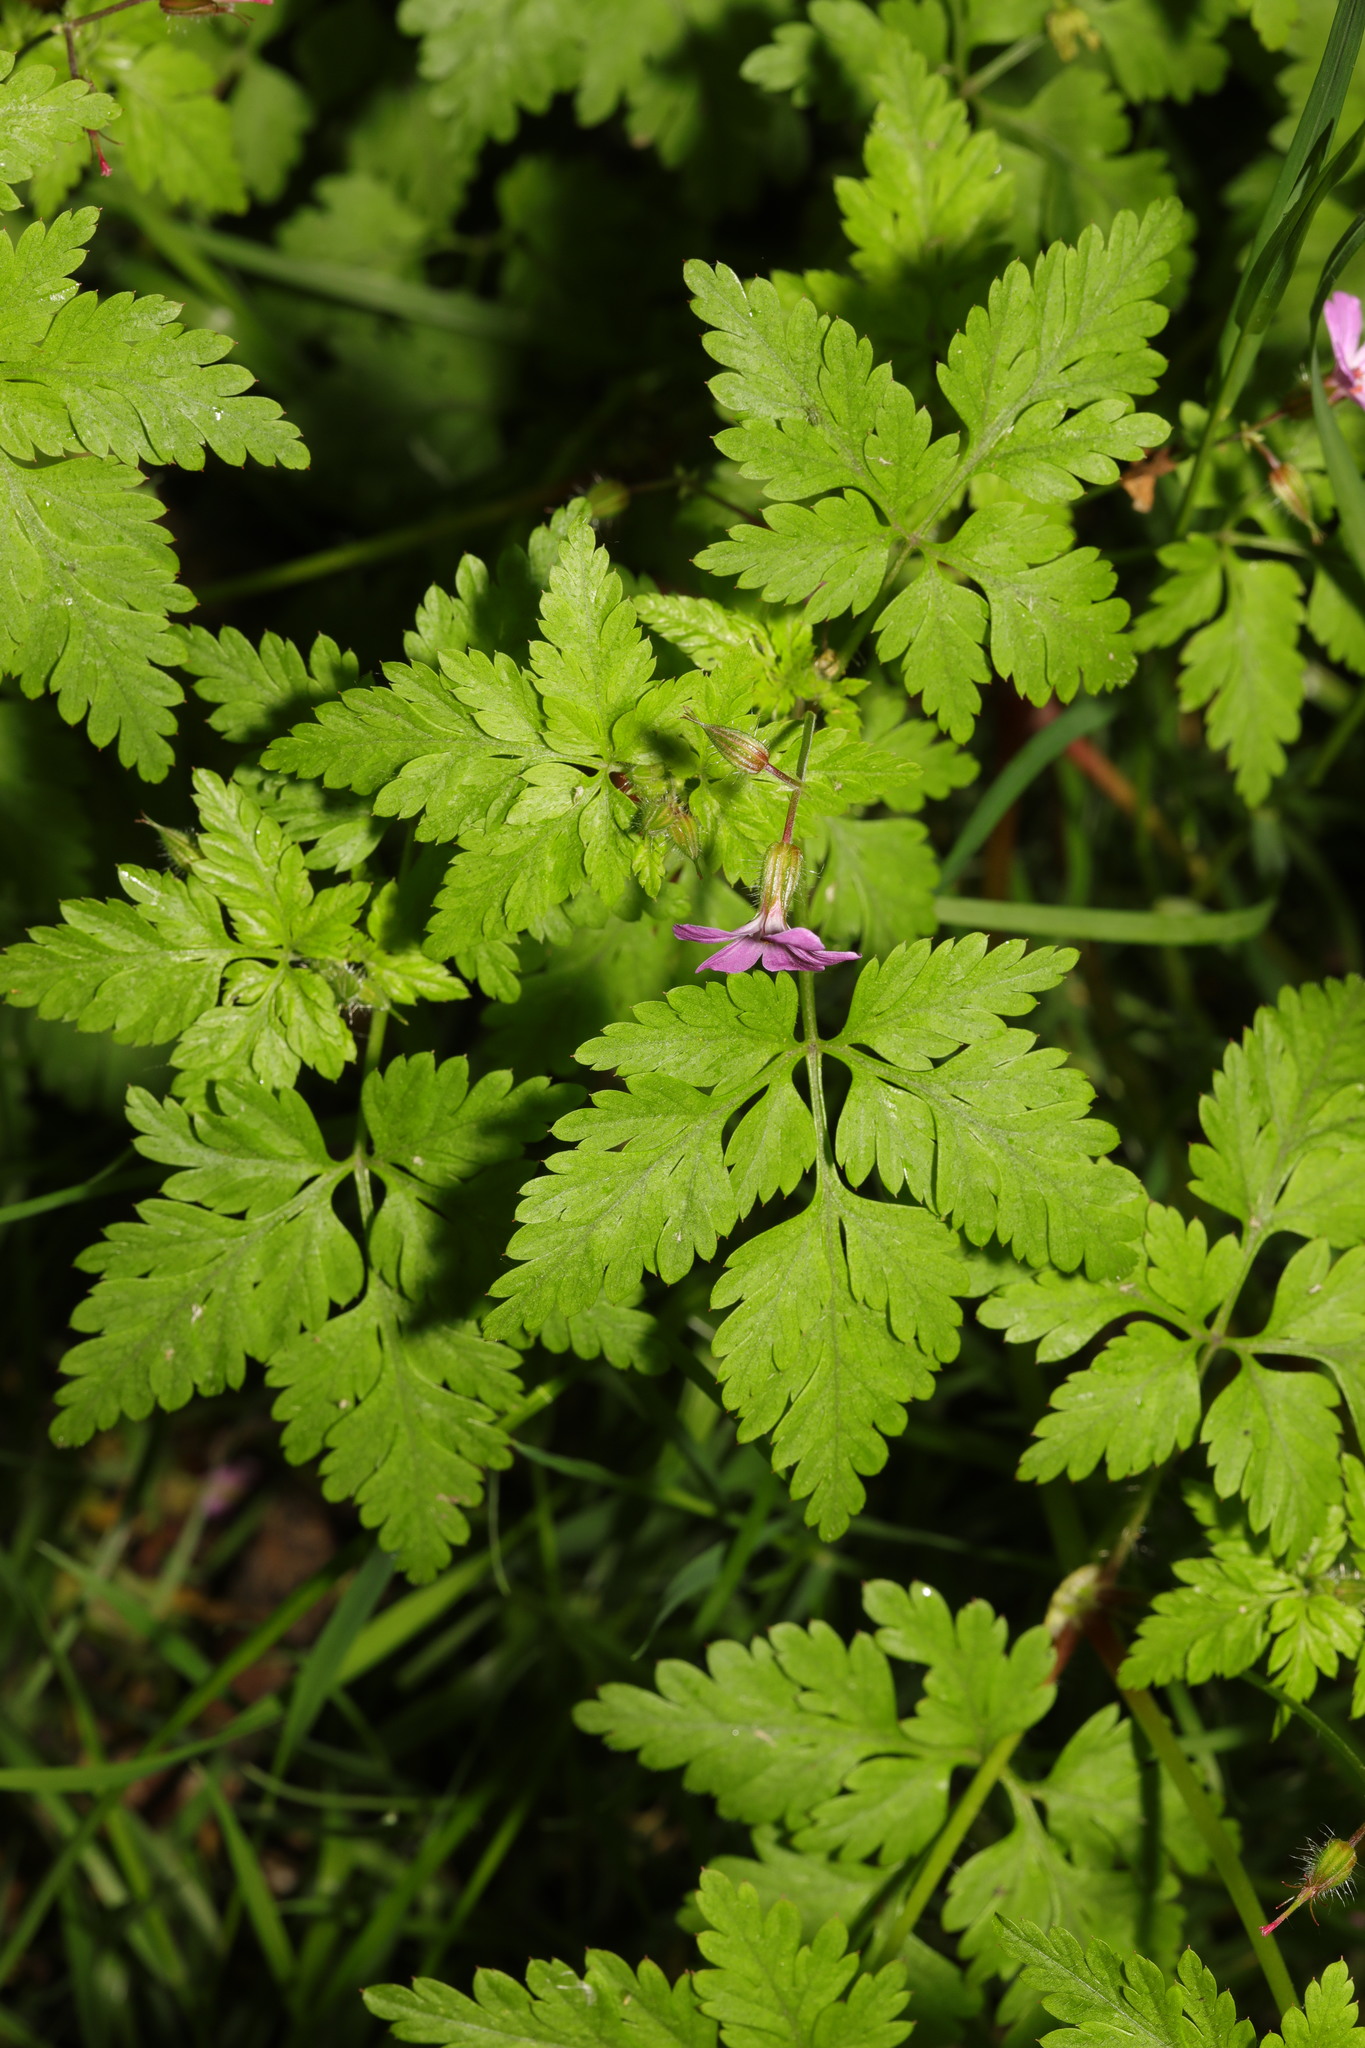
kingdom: Plantae
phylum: Tracheophyta
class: Magnoliopsida
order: Geraniales
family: Geraniaceae
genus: Geranium
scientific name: Geranium robertianum
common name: Herb-robert
